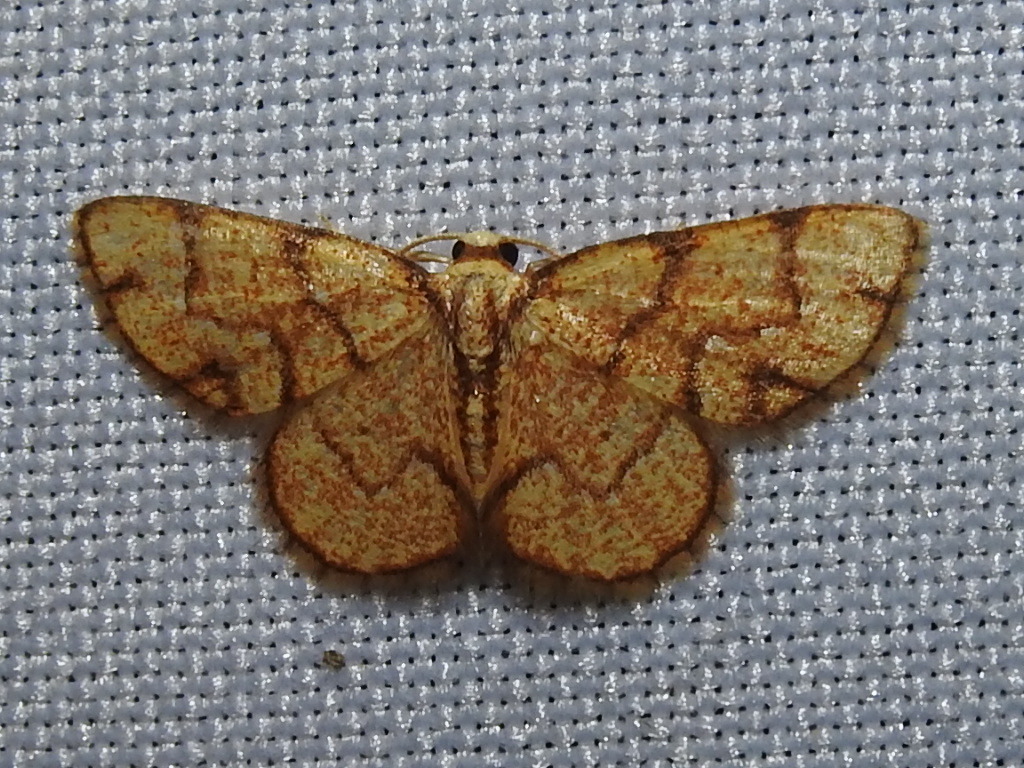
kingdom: Animalia
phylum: Arthropoda
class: Insecta
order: Lepidoptera
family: Geometridae
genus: Nematocampa
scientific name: Nematocampa straminea
